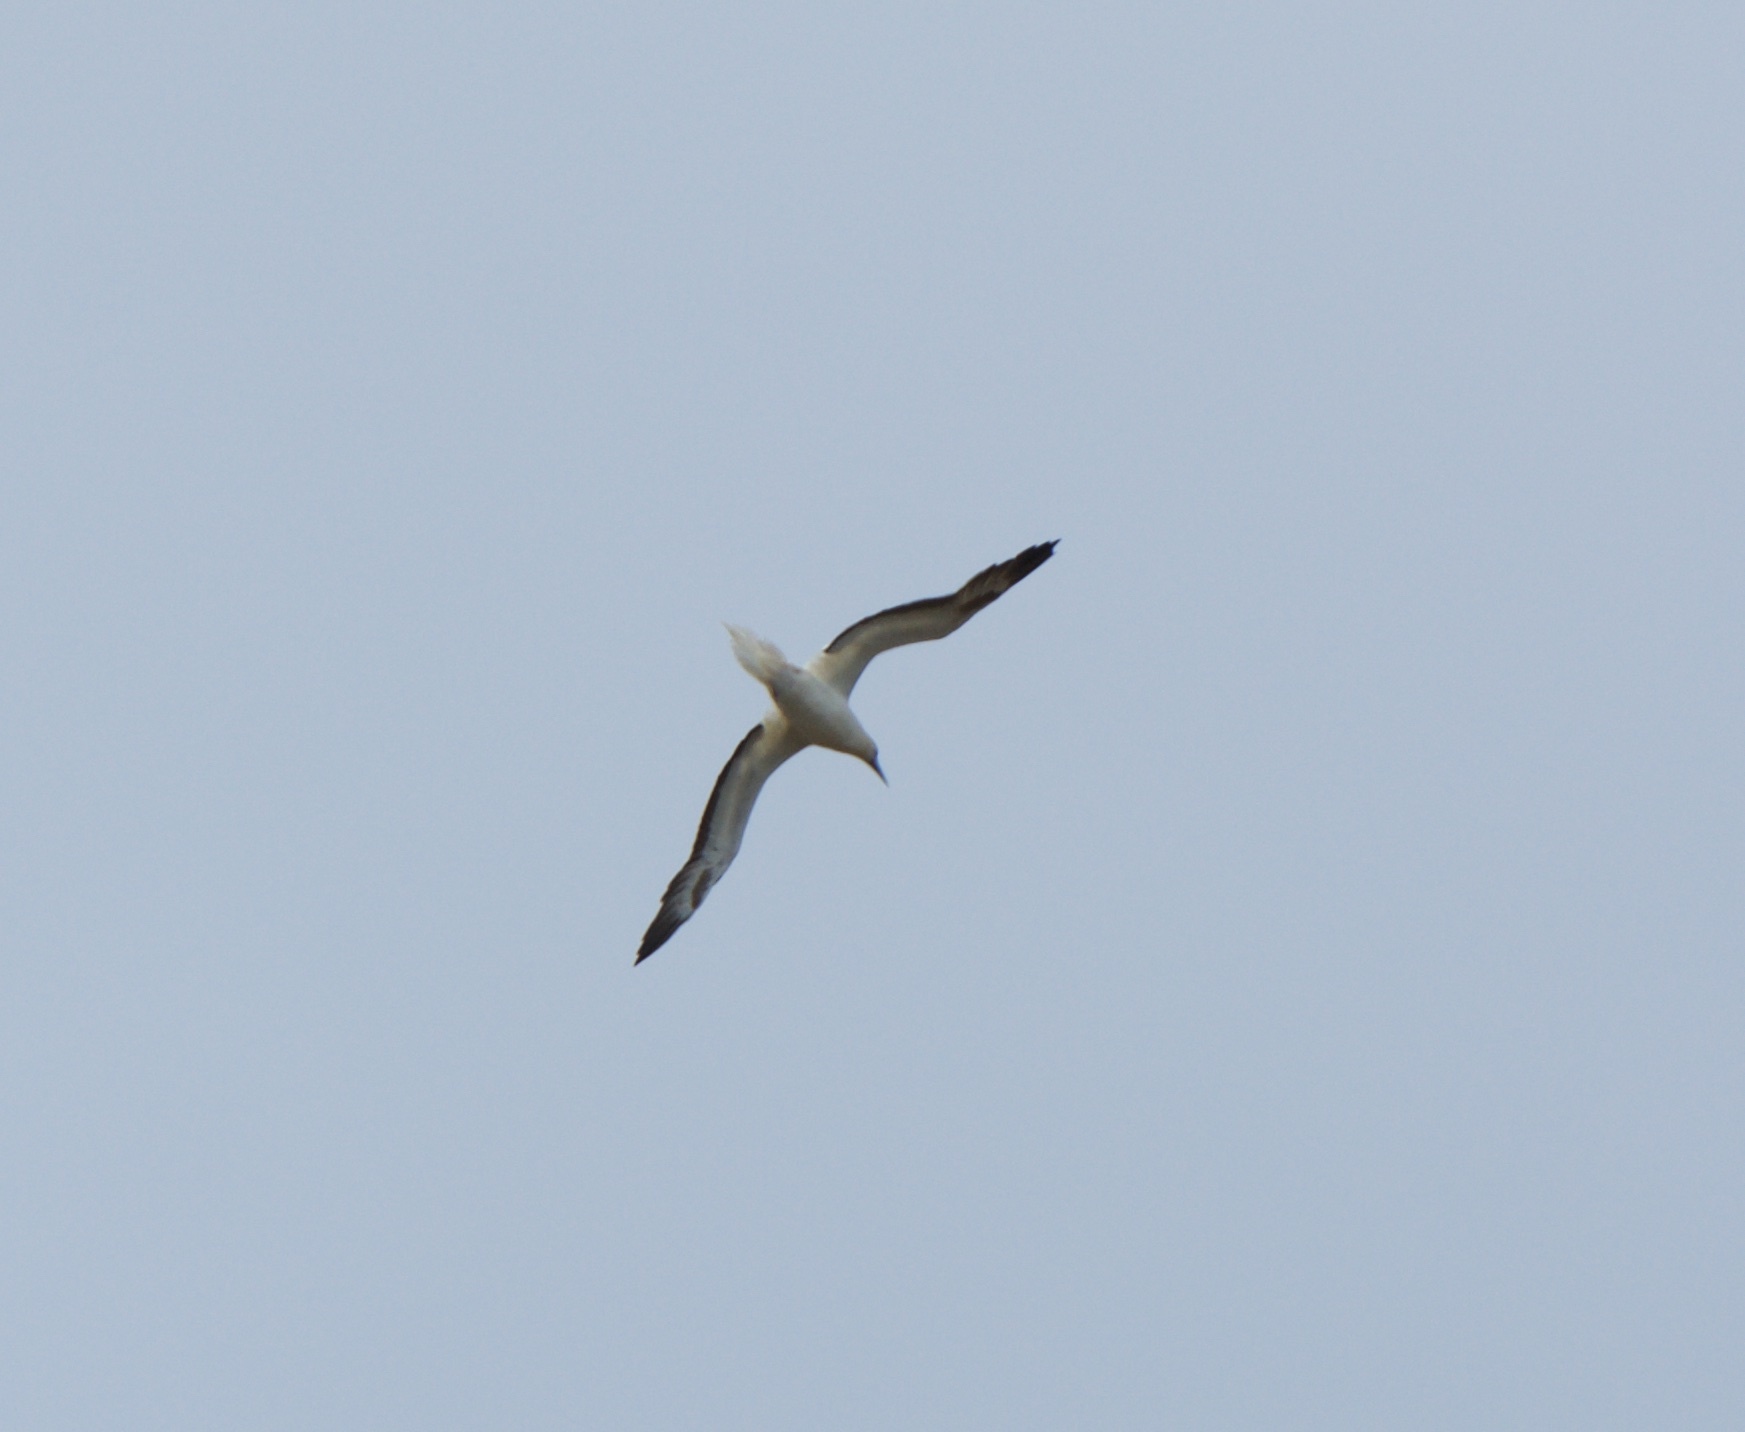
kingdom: Animalia
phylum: Chordata
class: Aves
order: Suliformes
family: Sulidae
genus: Sula
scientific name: Sula sula
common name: Red-footed booby
